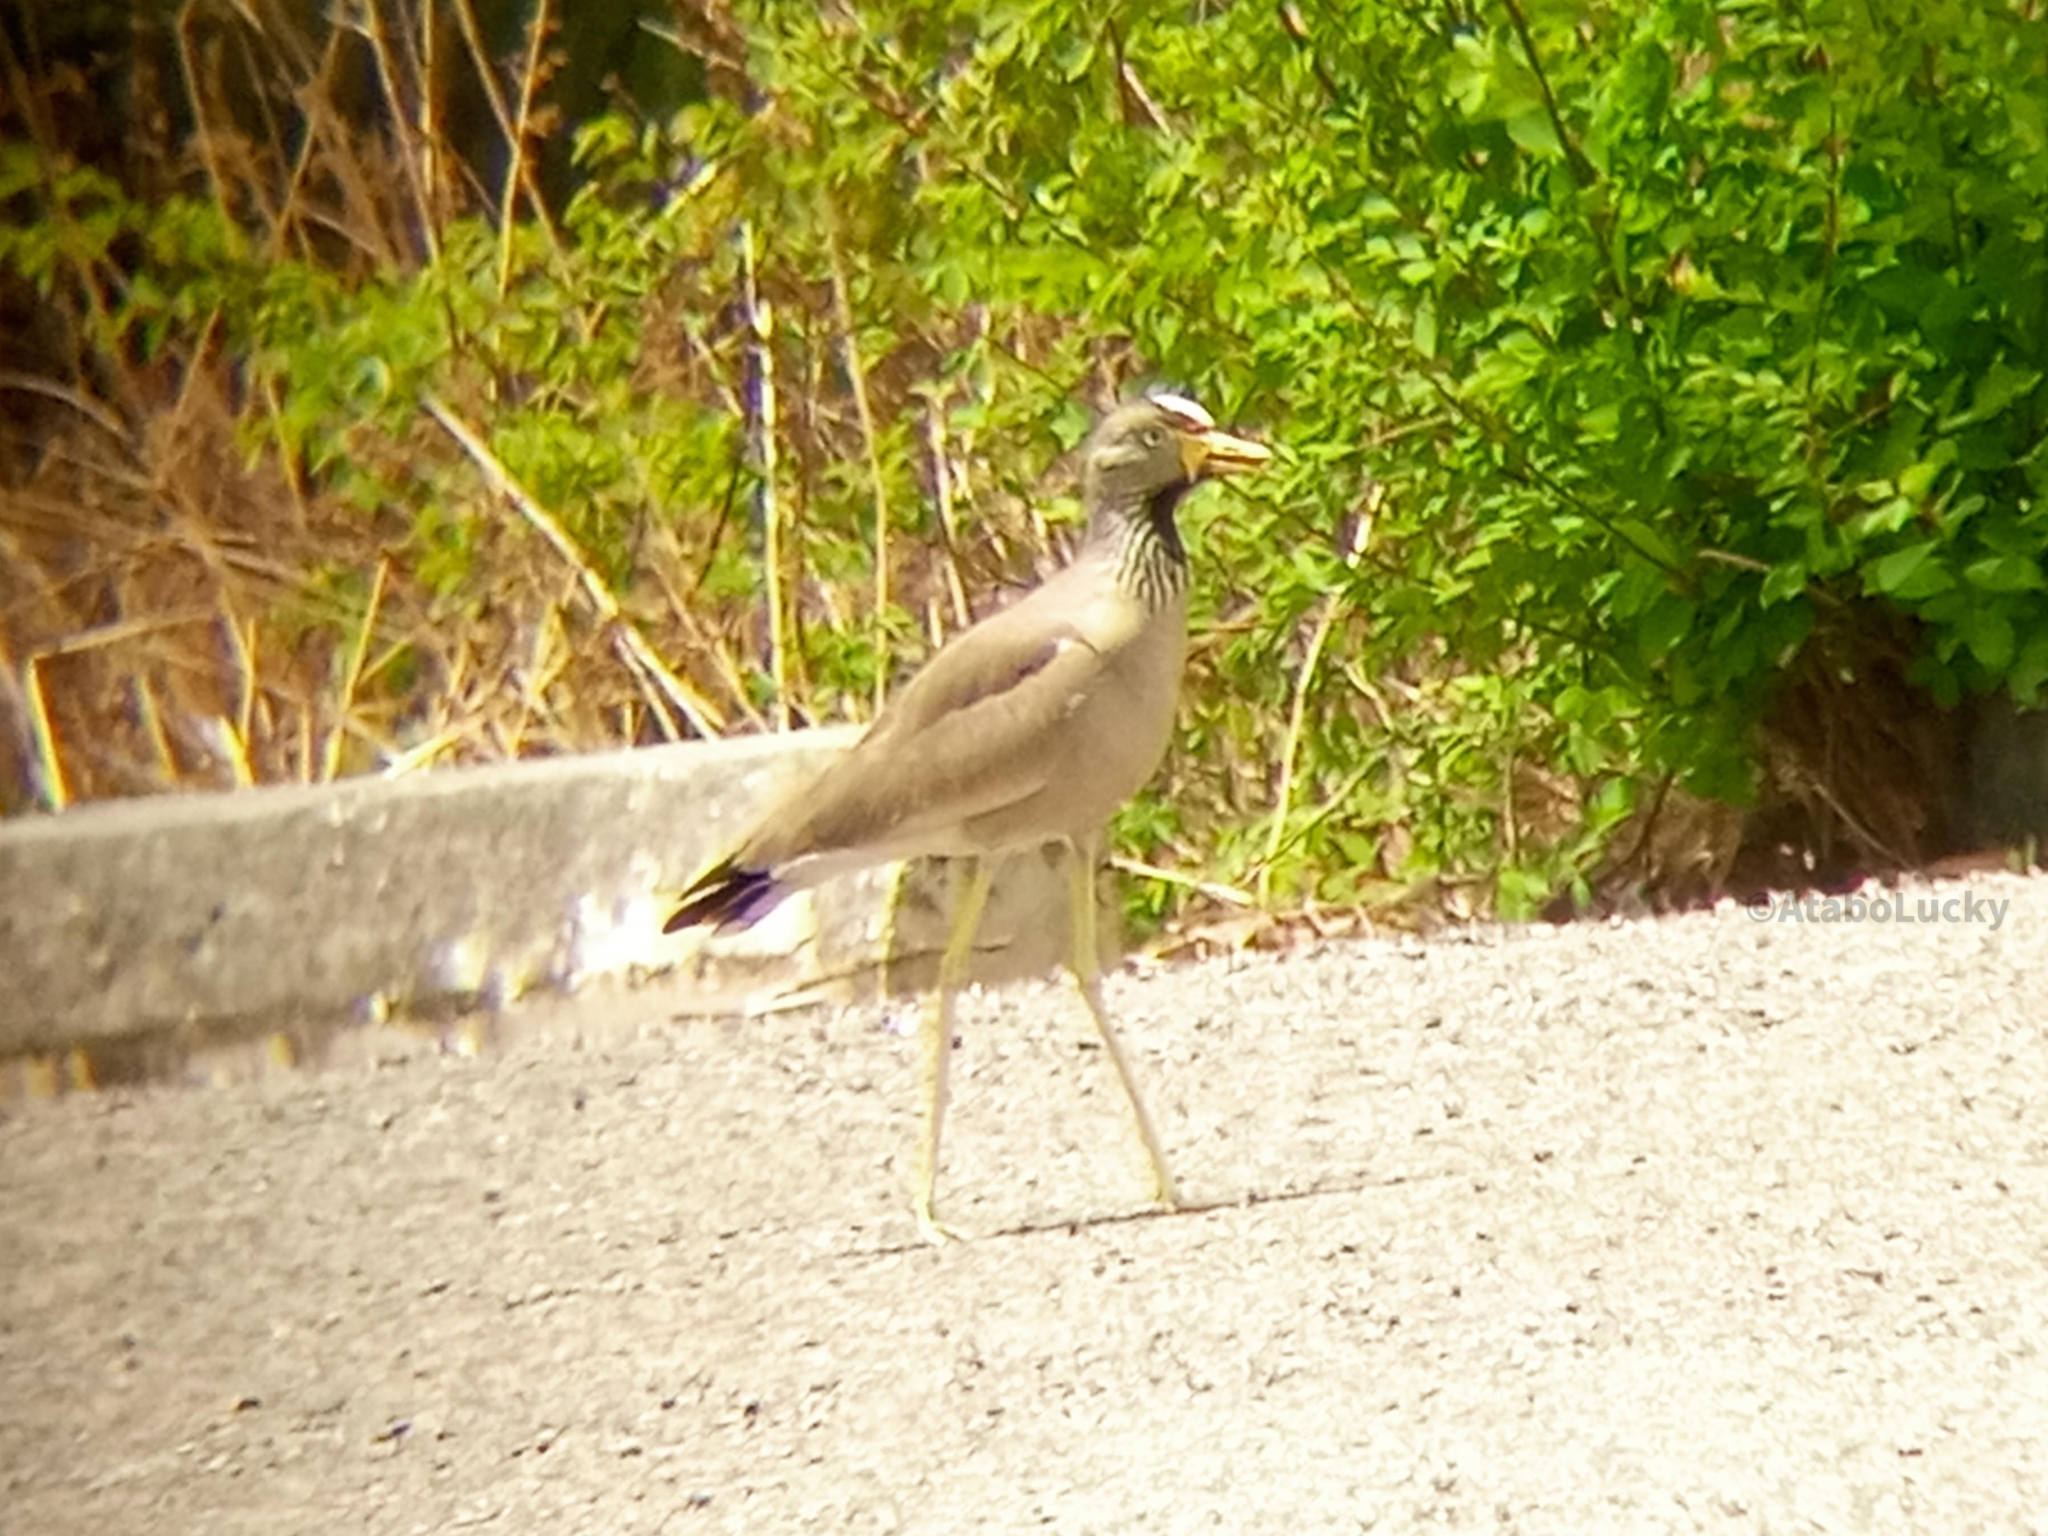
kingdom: Animalia
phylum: Chordata
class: Aves
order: Charadriiformes
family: Charadriidae
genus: Vanellus
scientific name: Vanellus senegallus
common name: African wattled lapwing
